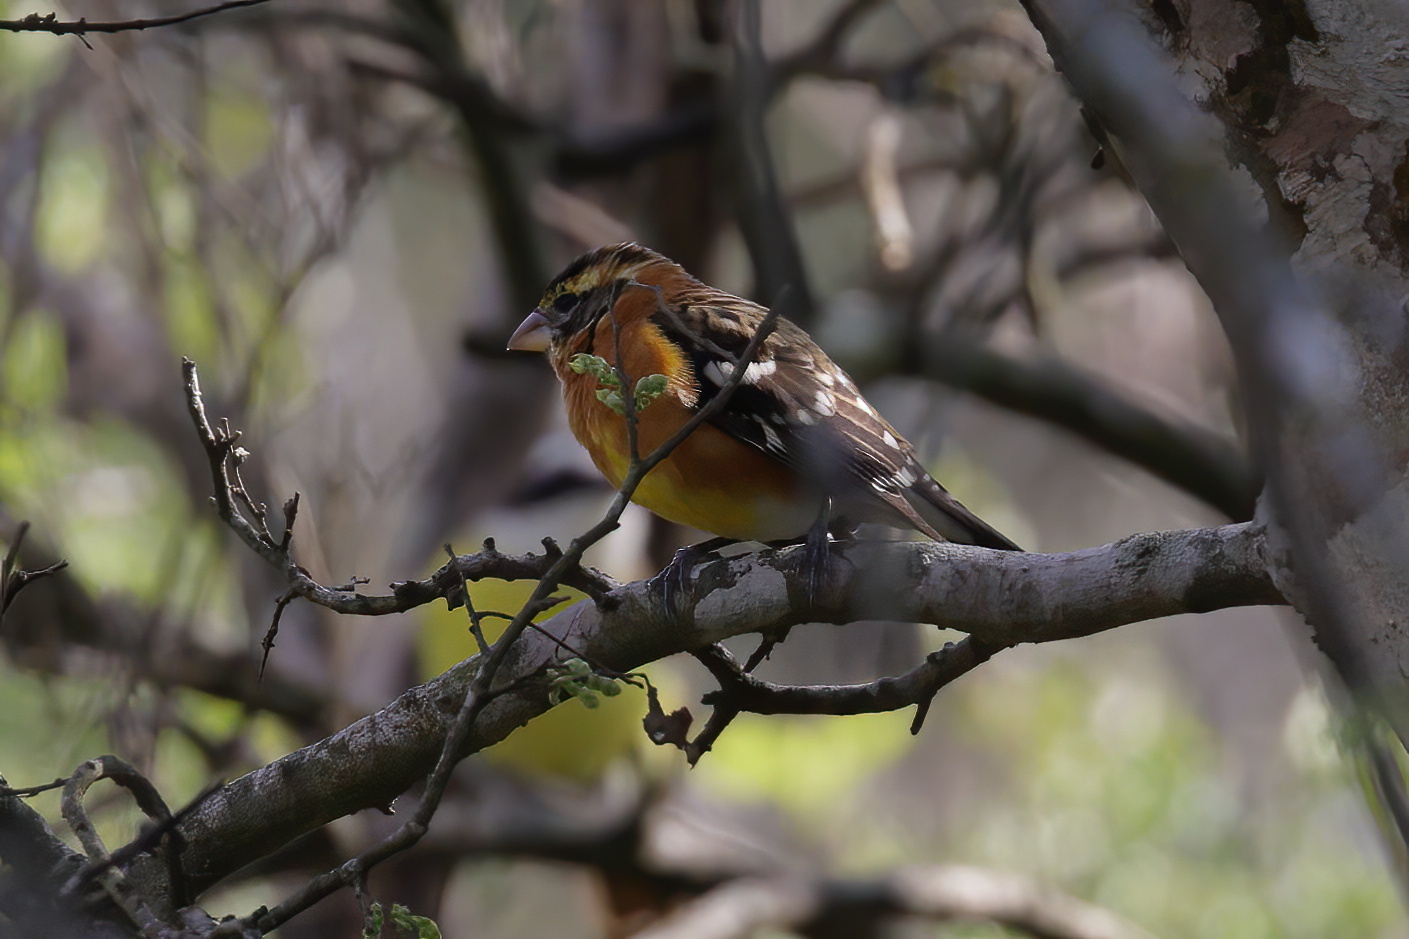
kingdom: Animalia
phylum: Chordata
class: Aves
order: Passeriformes
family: Cardinalidae
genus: Pheucticus
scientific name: Pheucticus melanocephalus
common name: Black-headed grosbeak
